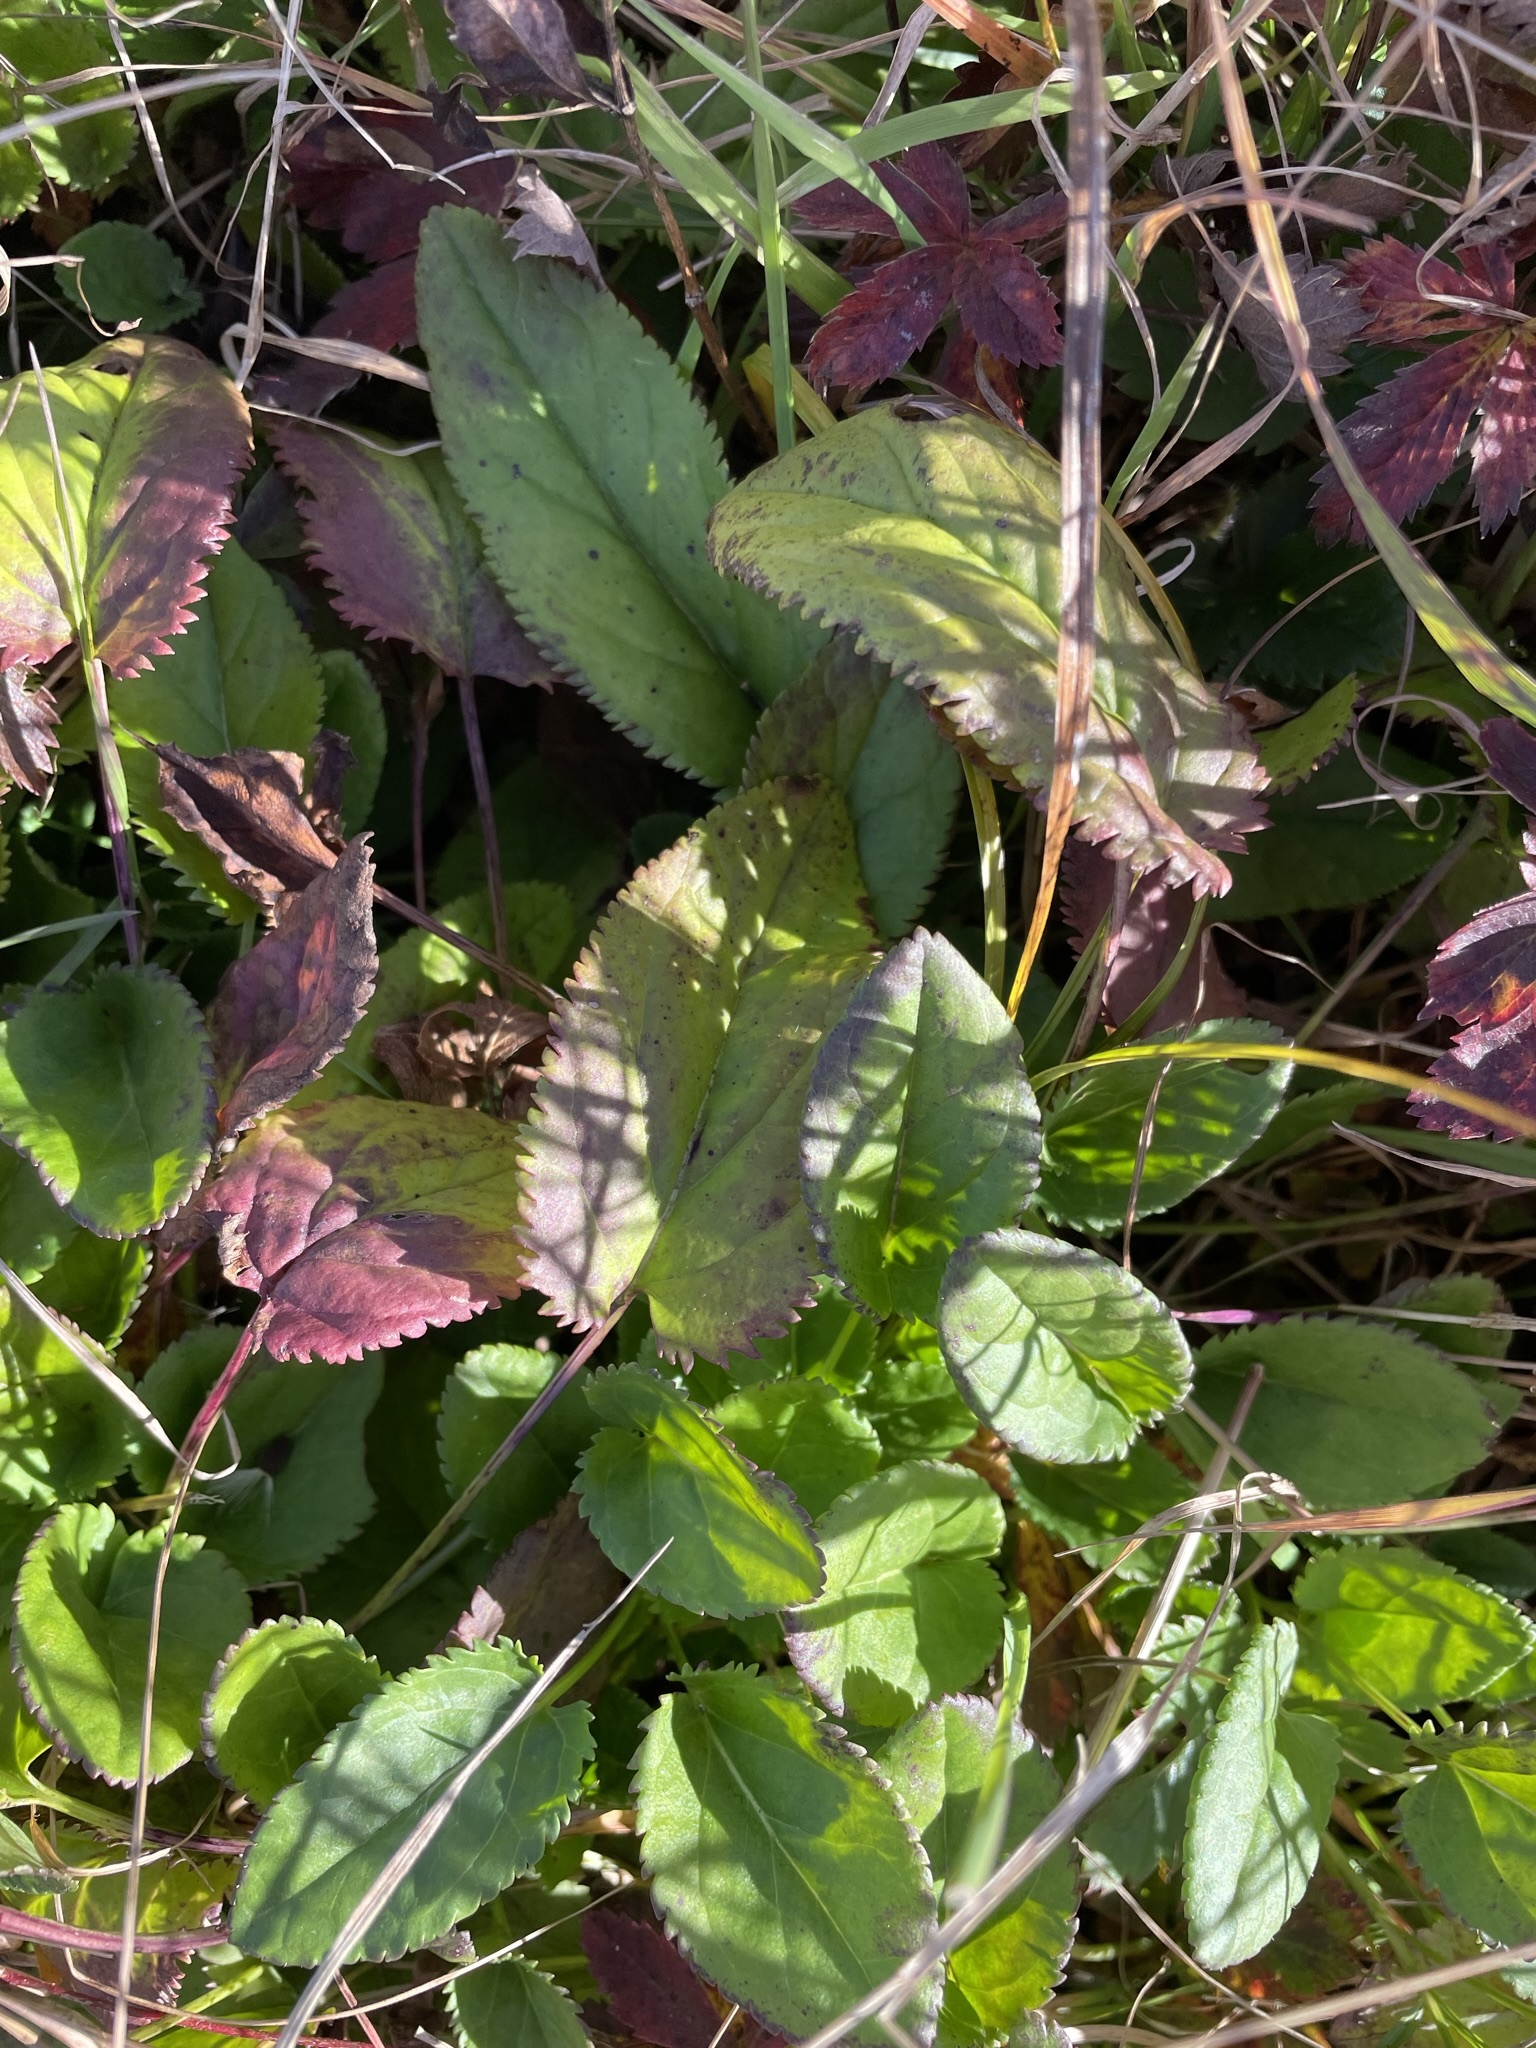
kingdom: Plantae
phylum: Tracheophyta
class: Magnoliopsida
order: Asterales
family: Asteraceae
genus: Packera
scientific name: Packera schweinitziana
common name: Schweinitz's ragwort
